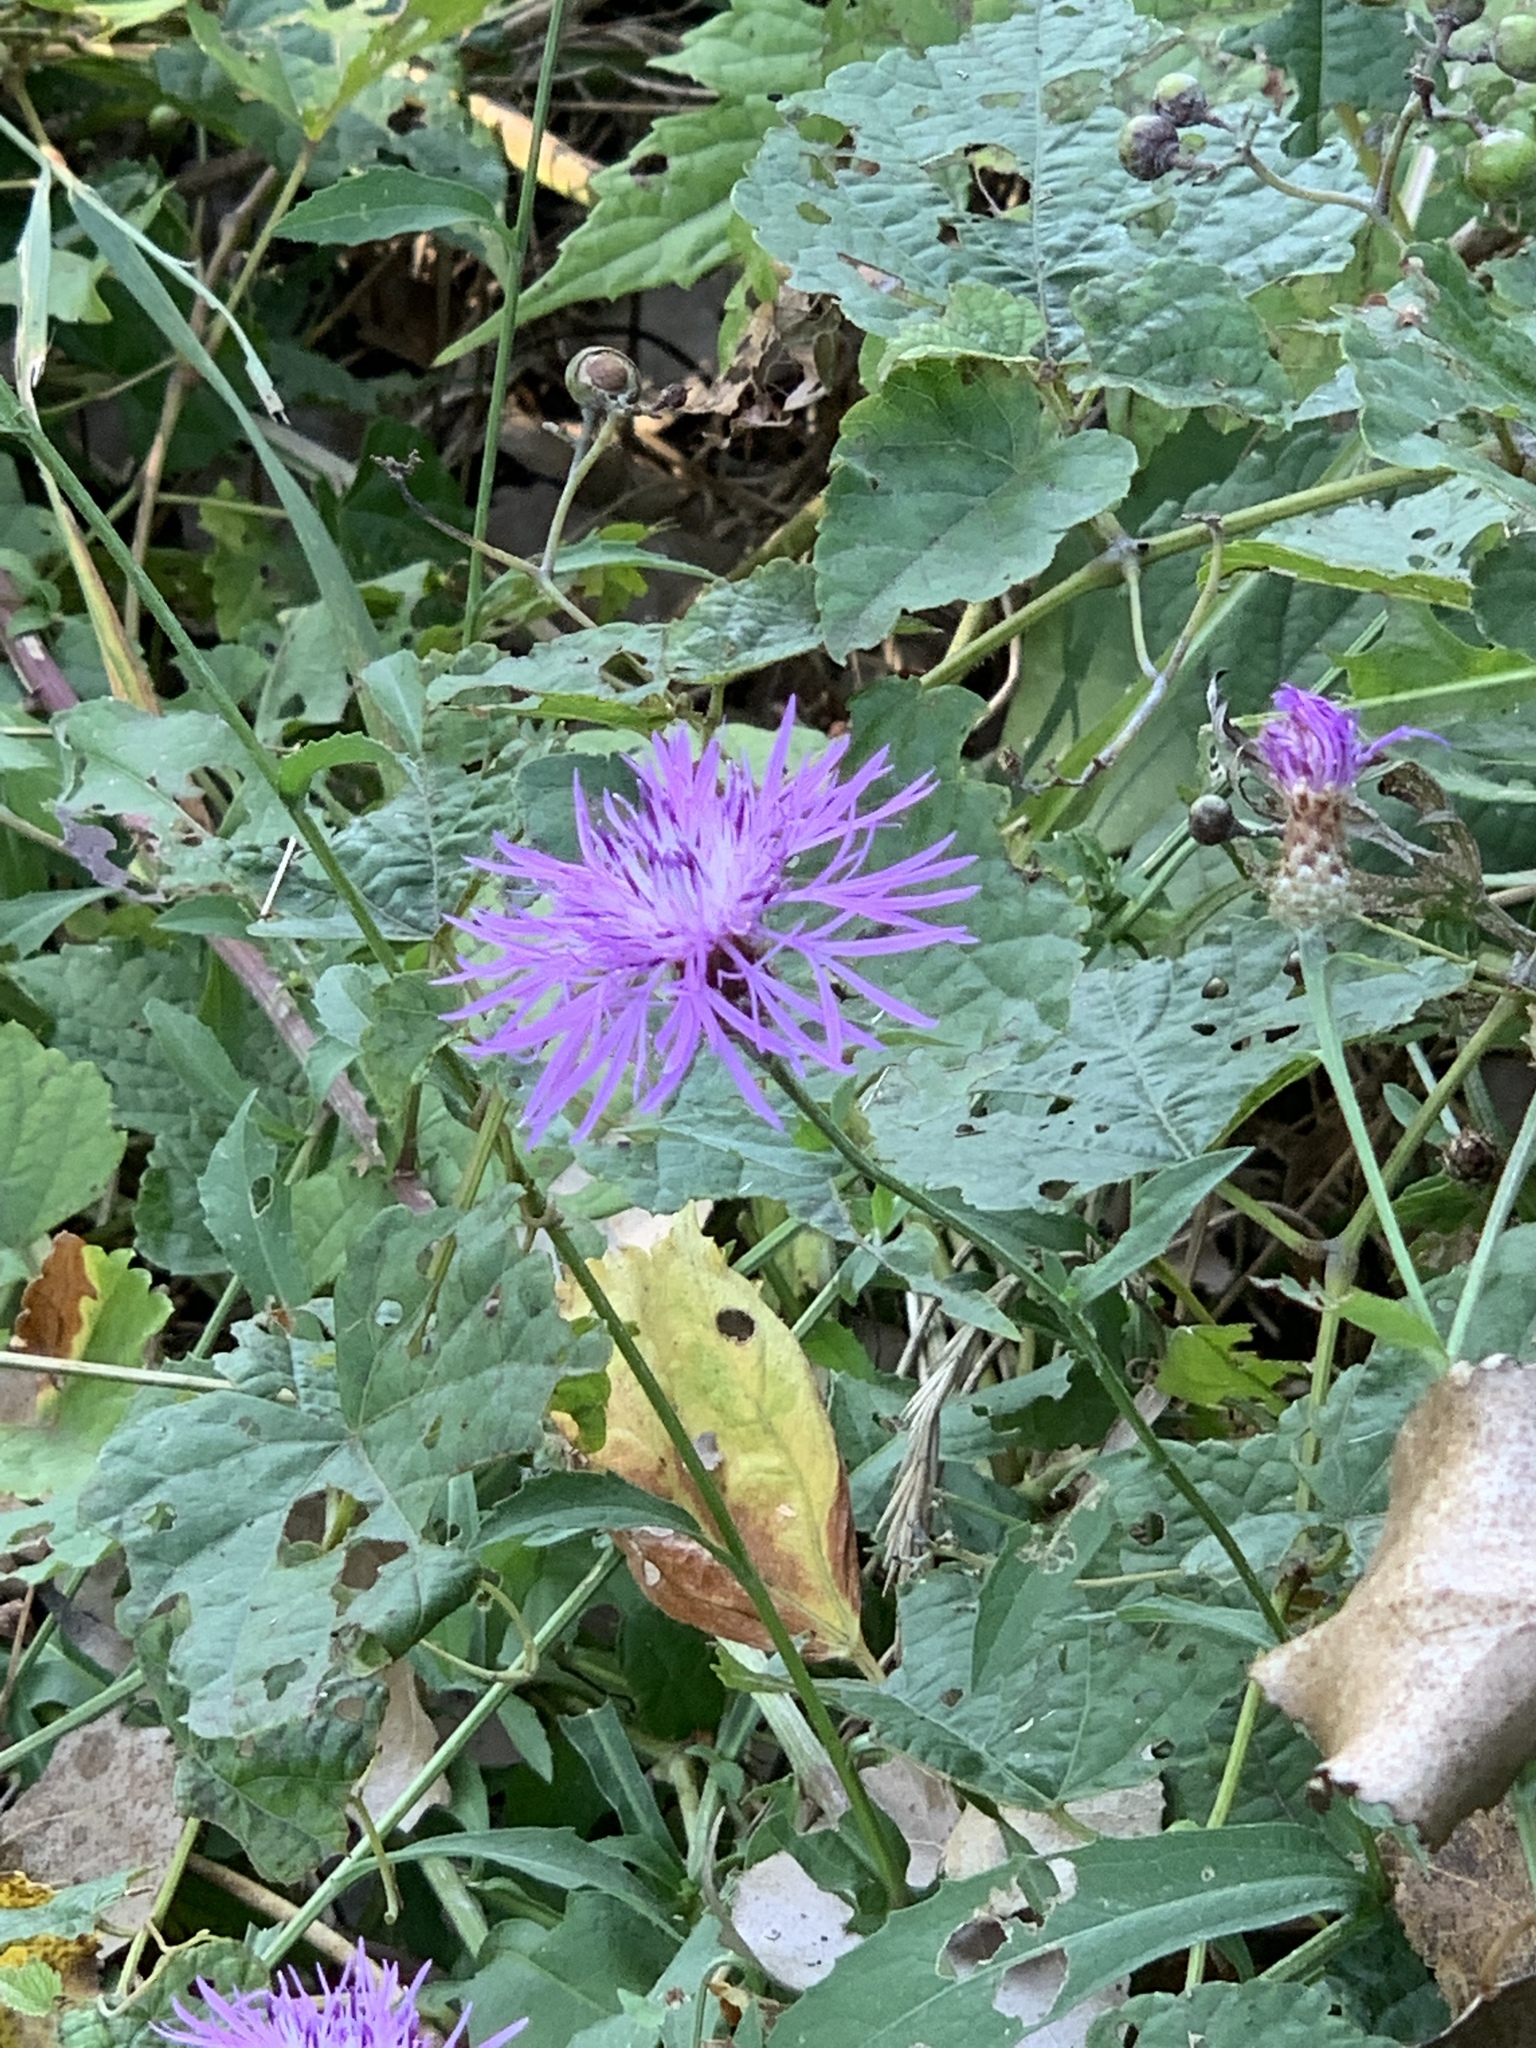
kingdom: Plantae
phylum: Tracheophyta
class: Magnoliopsida
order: Asterales
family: Asteraceae
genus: Centaurea
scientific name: Centaurea nigrescens
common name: Tyrol knapweed
